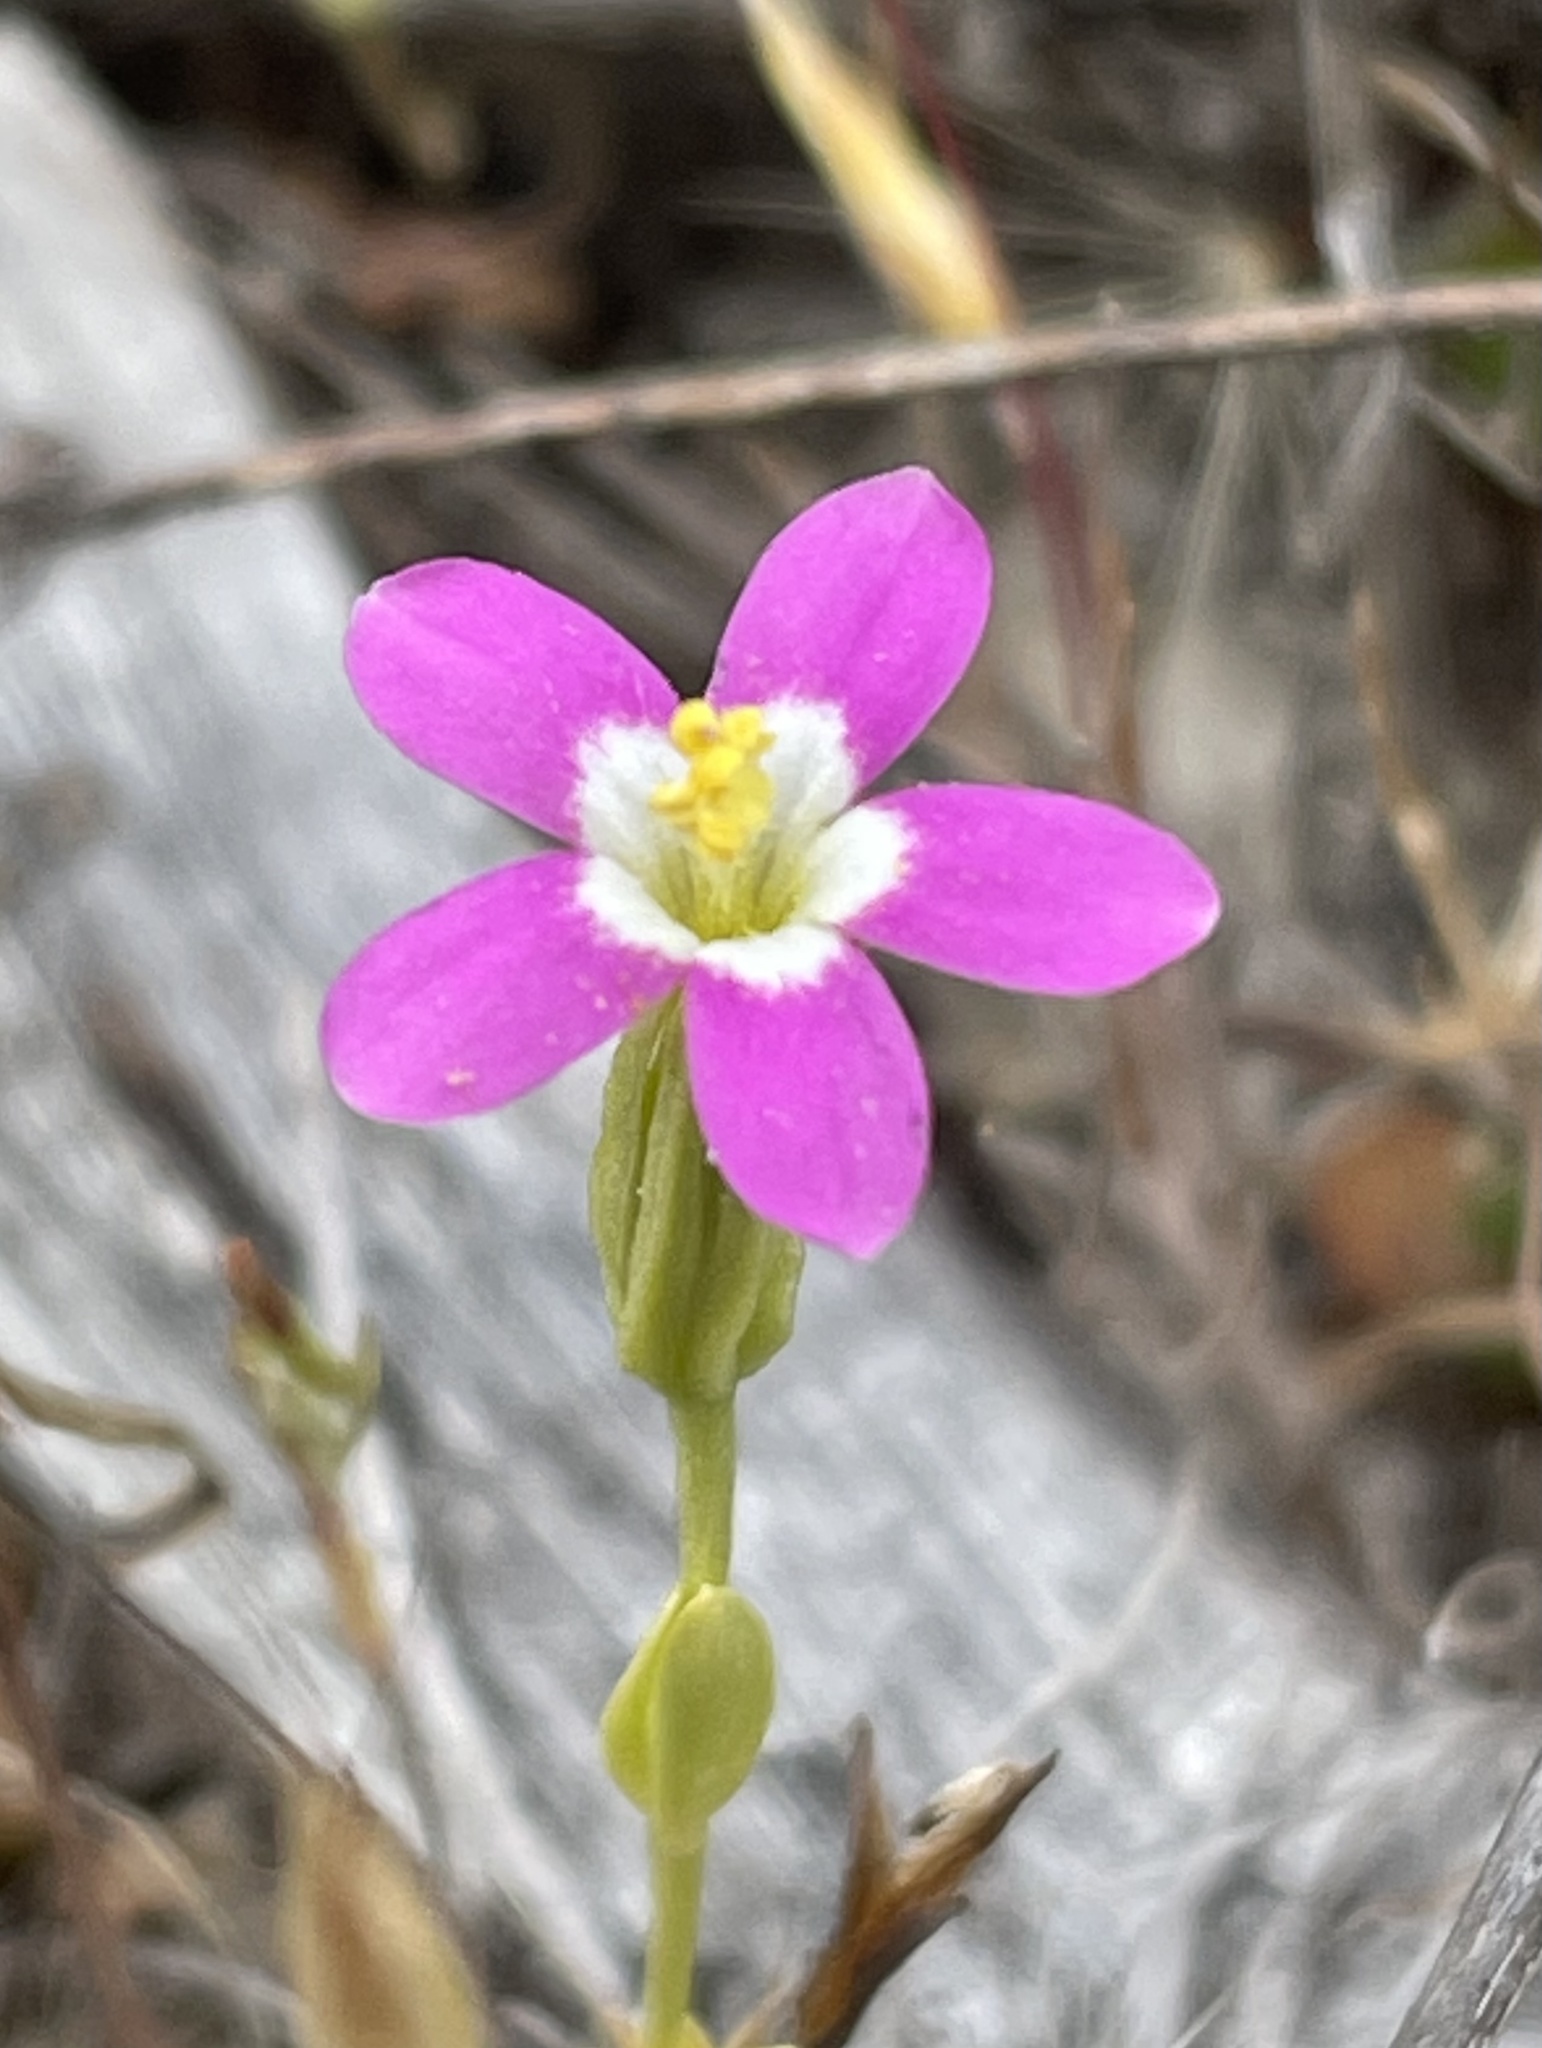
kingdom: Plantae
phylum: Tracheophyta
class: Magnoliopsida
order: Gentianales
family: Gentianaceae
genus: Zeltnera
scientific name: Zeltnera davyi
